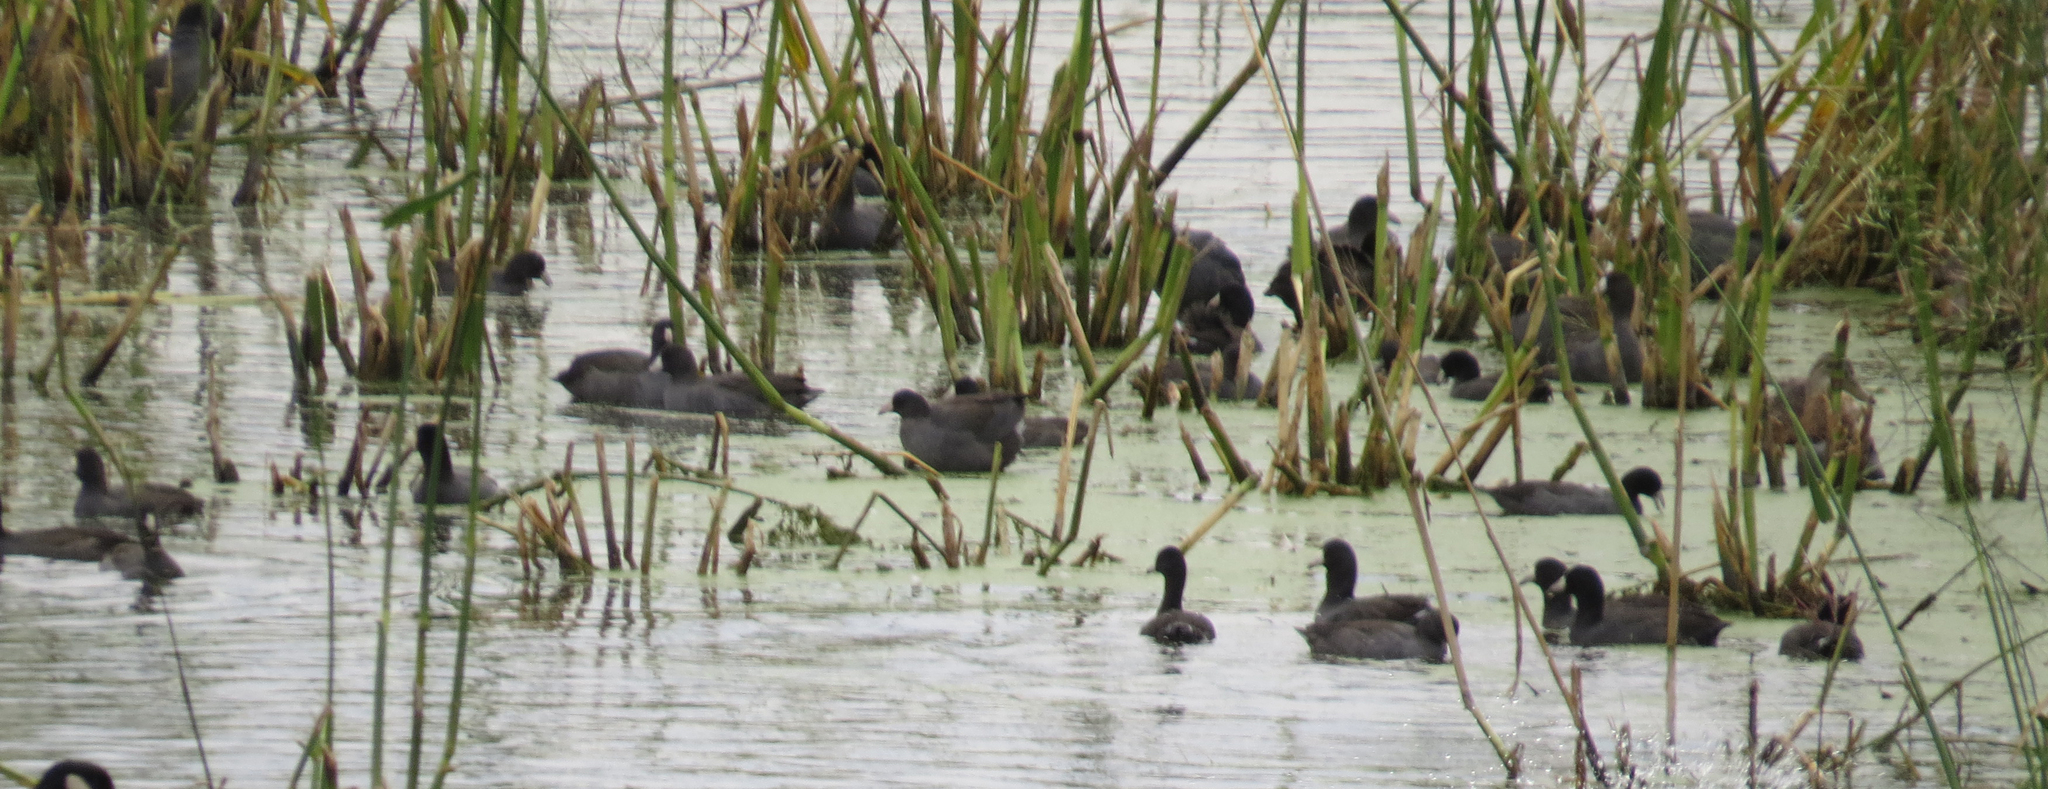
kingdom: Animalia
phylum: Chordata
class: Aves
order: Gruiformes
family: Rallidae
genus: Fulica
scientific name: Fulica americana
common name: American coot
